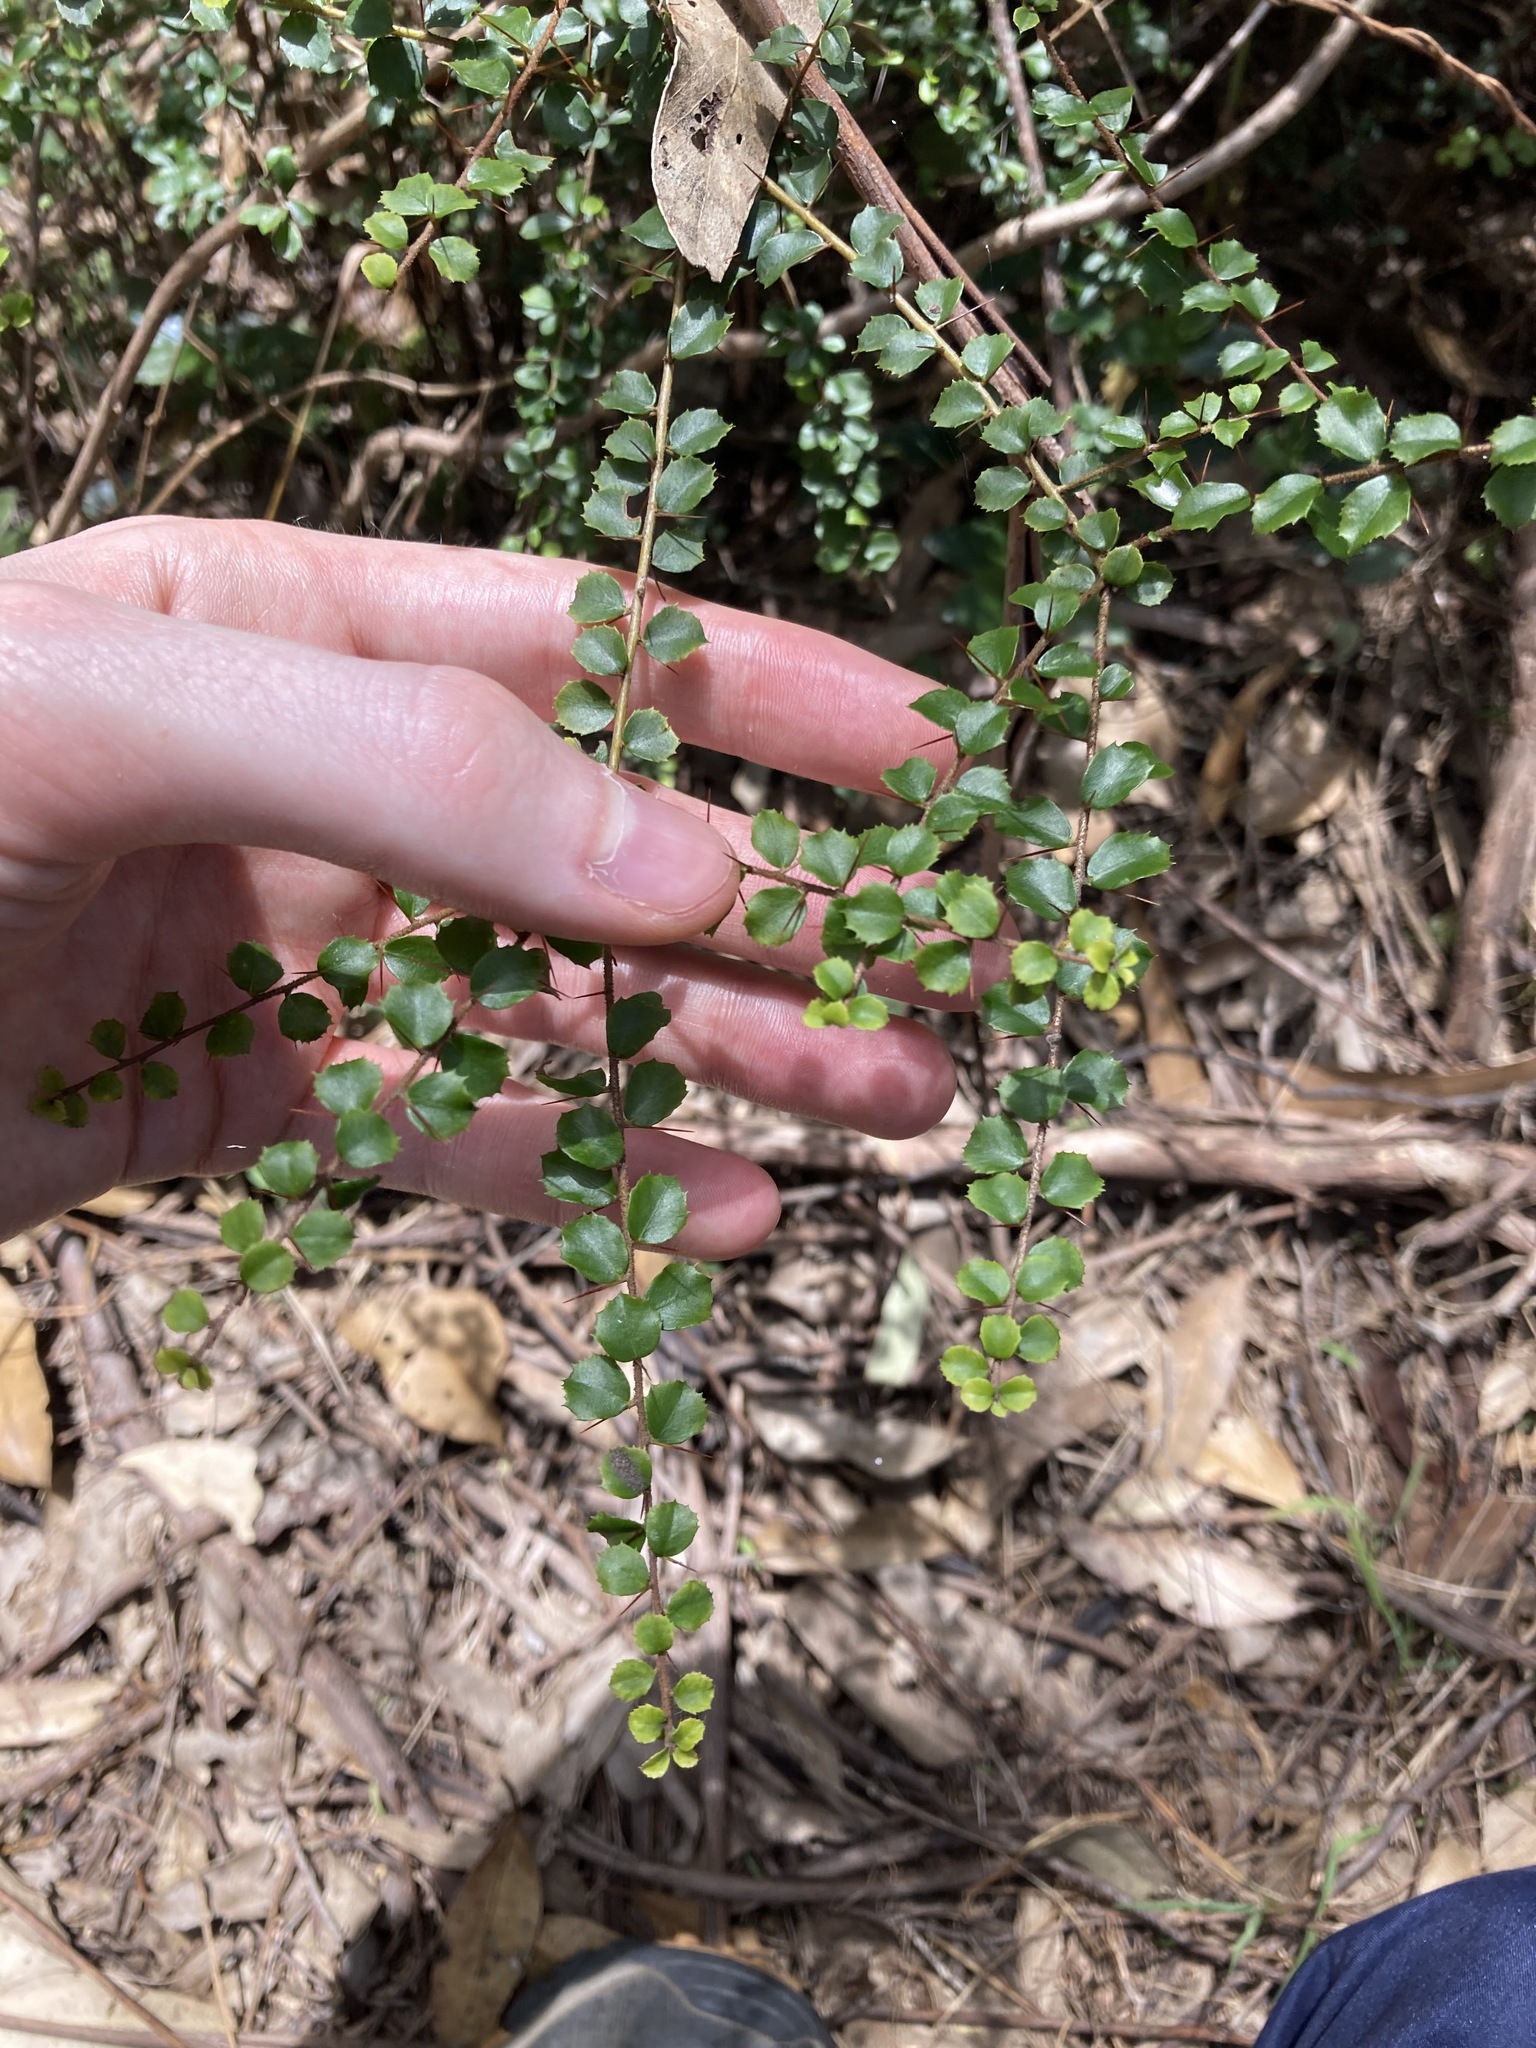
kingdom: Plantae
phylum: Tracheophyta
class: Magnoliopsida
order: Apiales
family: Pittosporaceae
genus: Pittosporum
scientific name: Pittosporum multiflorum
